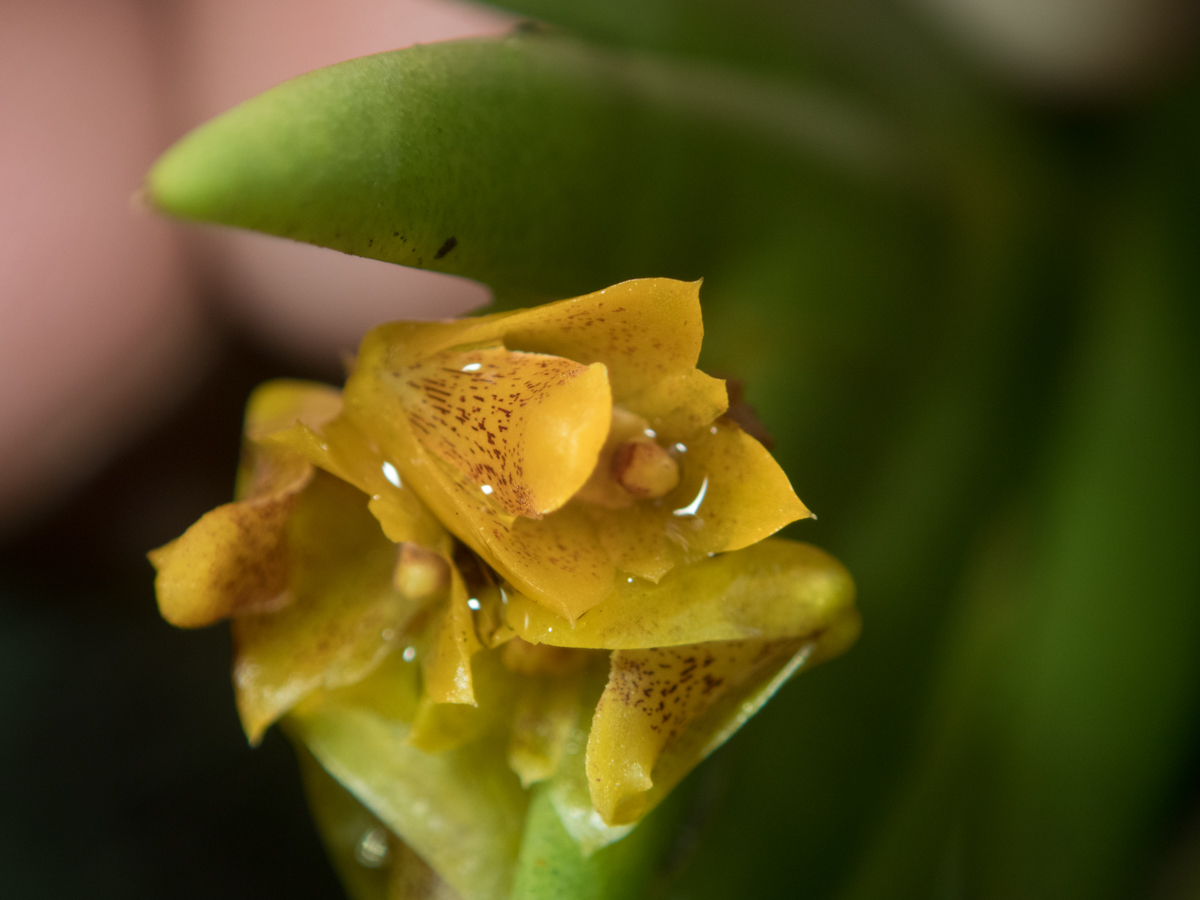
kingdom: Plantae
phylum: Tracheophyta
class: Liliopsida
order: Asparagales
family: Orchidaceae
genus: Oxystophyllum
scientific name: Oxystophyllum carnosum
